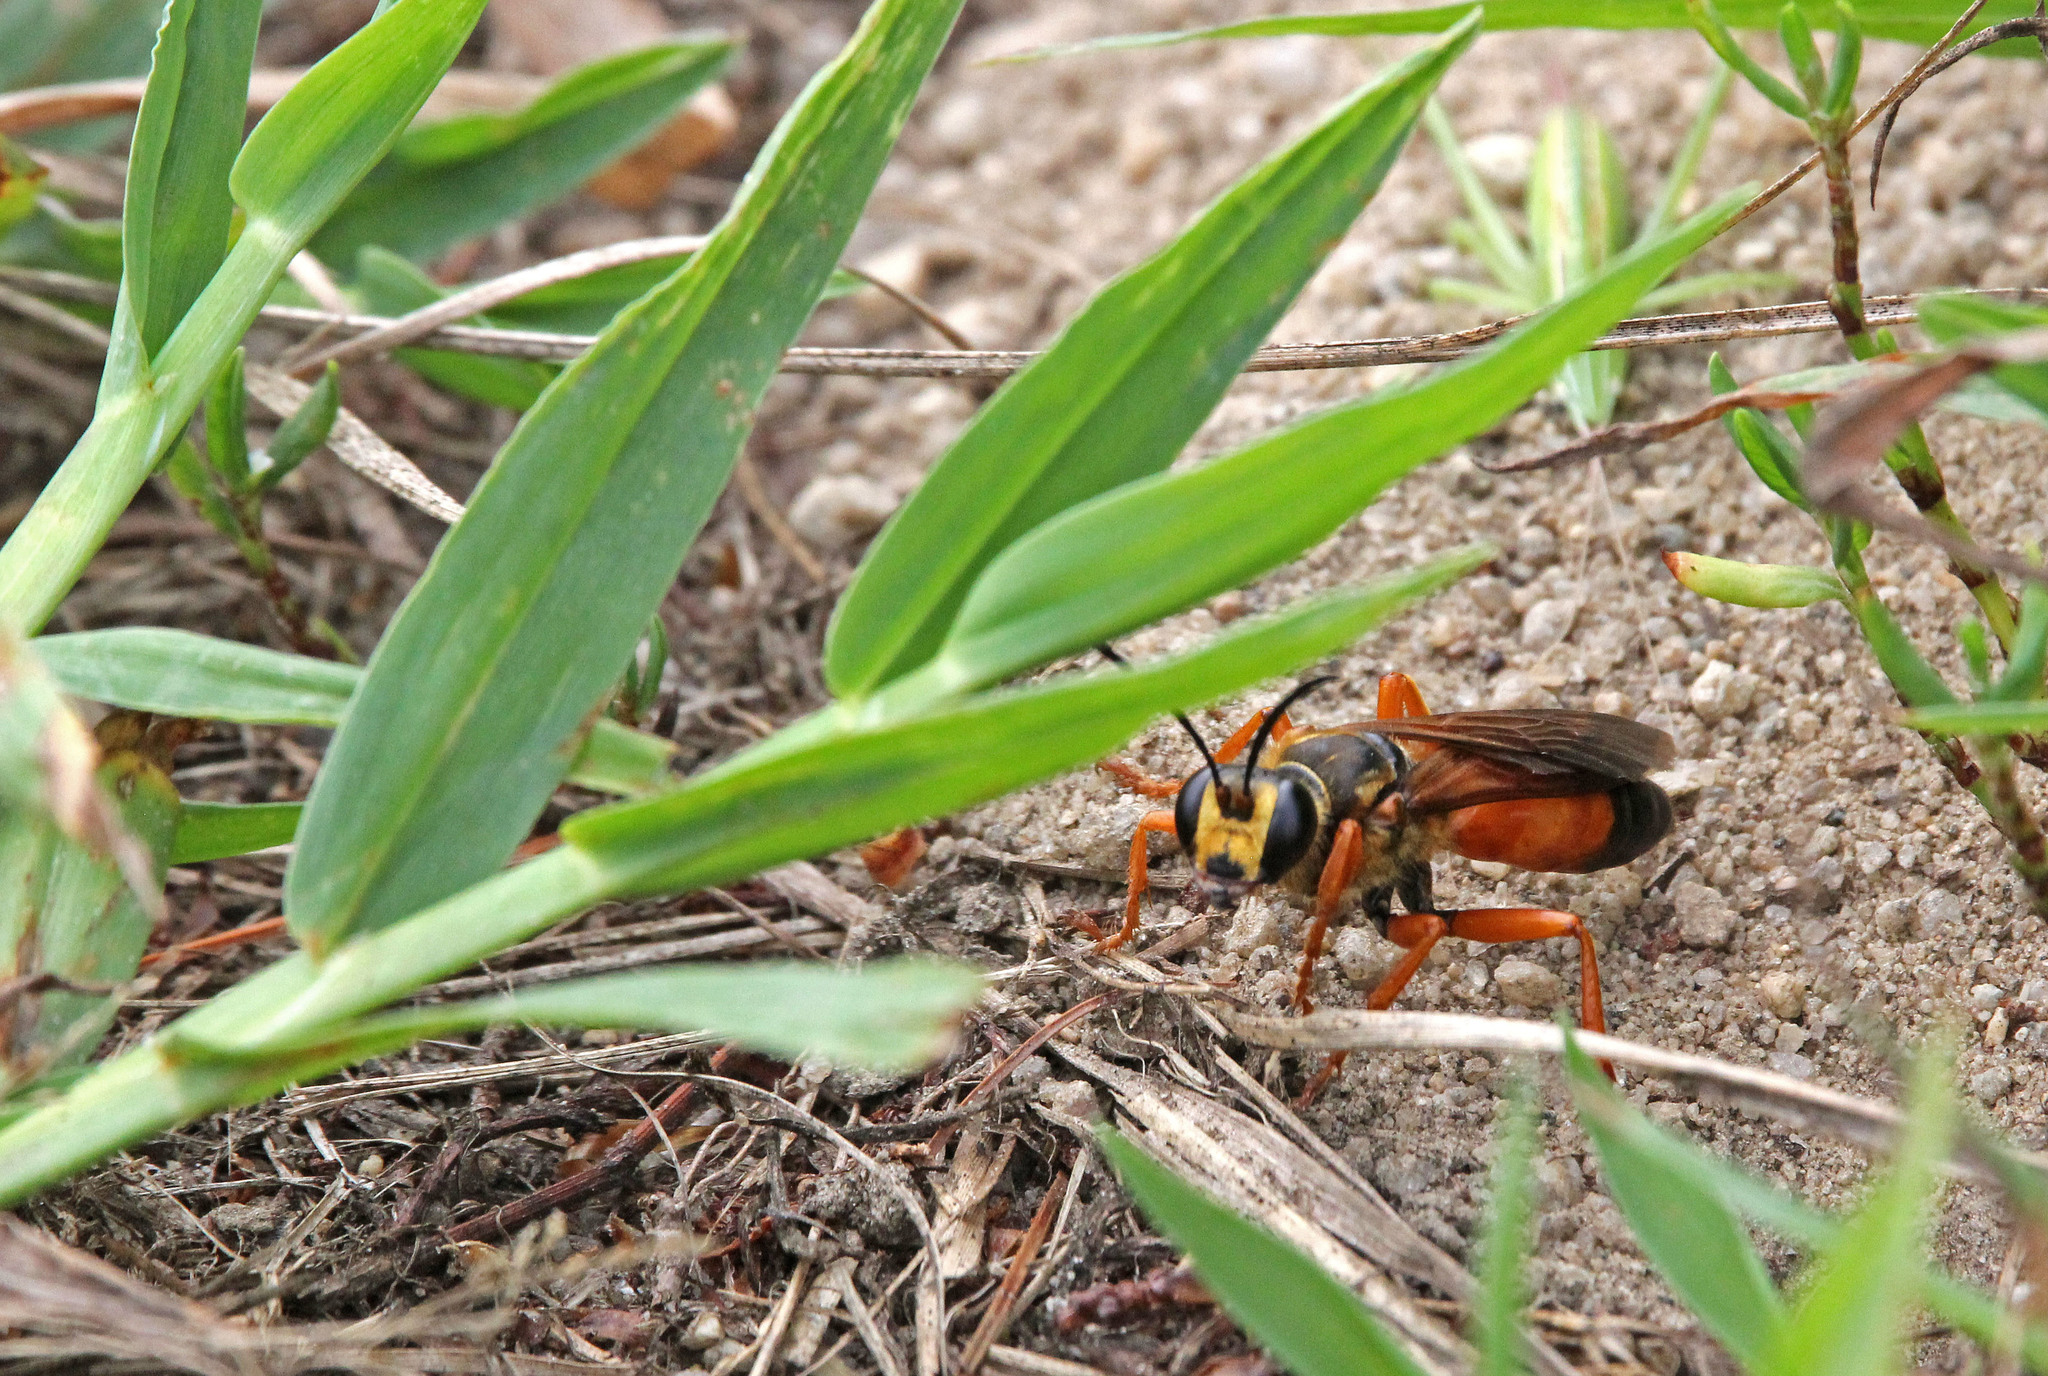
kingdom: Animalia
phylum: Arthropoda
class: Insecta
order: Hymenoptera
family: Sphecidae
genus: Sphex
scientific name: Sphex ichneumoneus
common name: Great golden digger wasp
